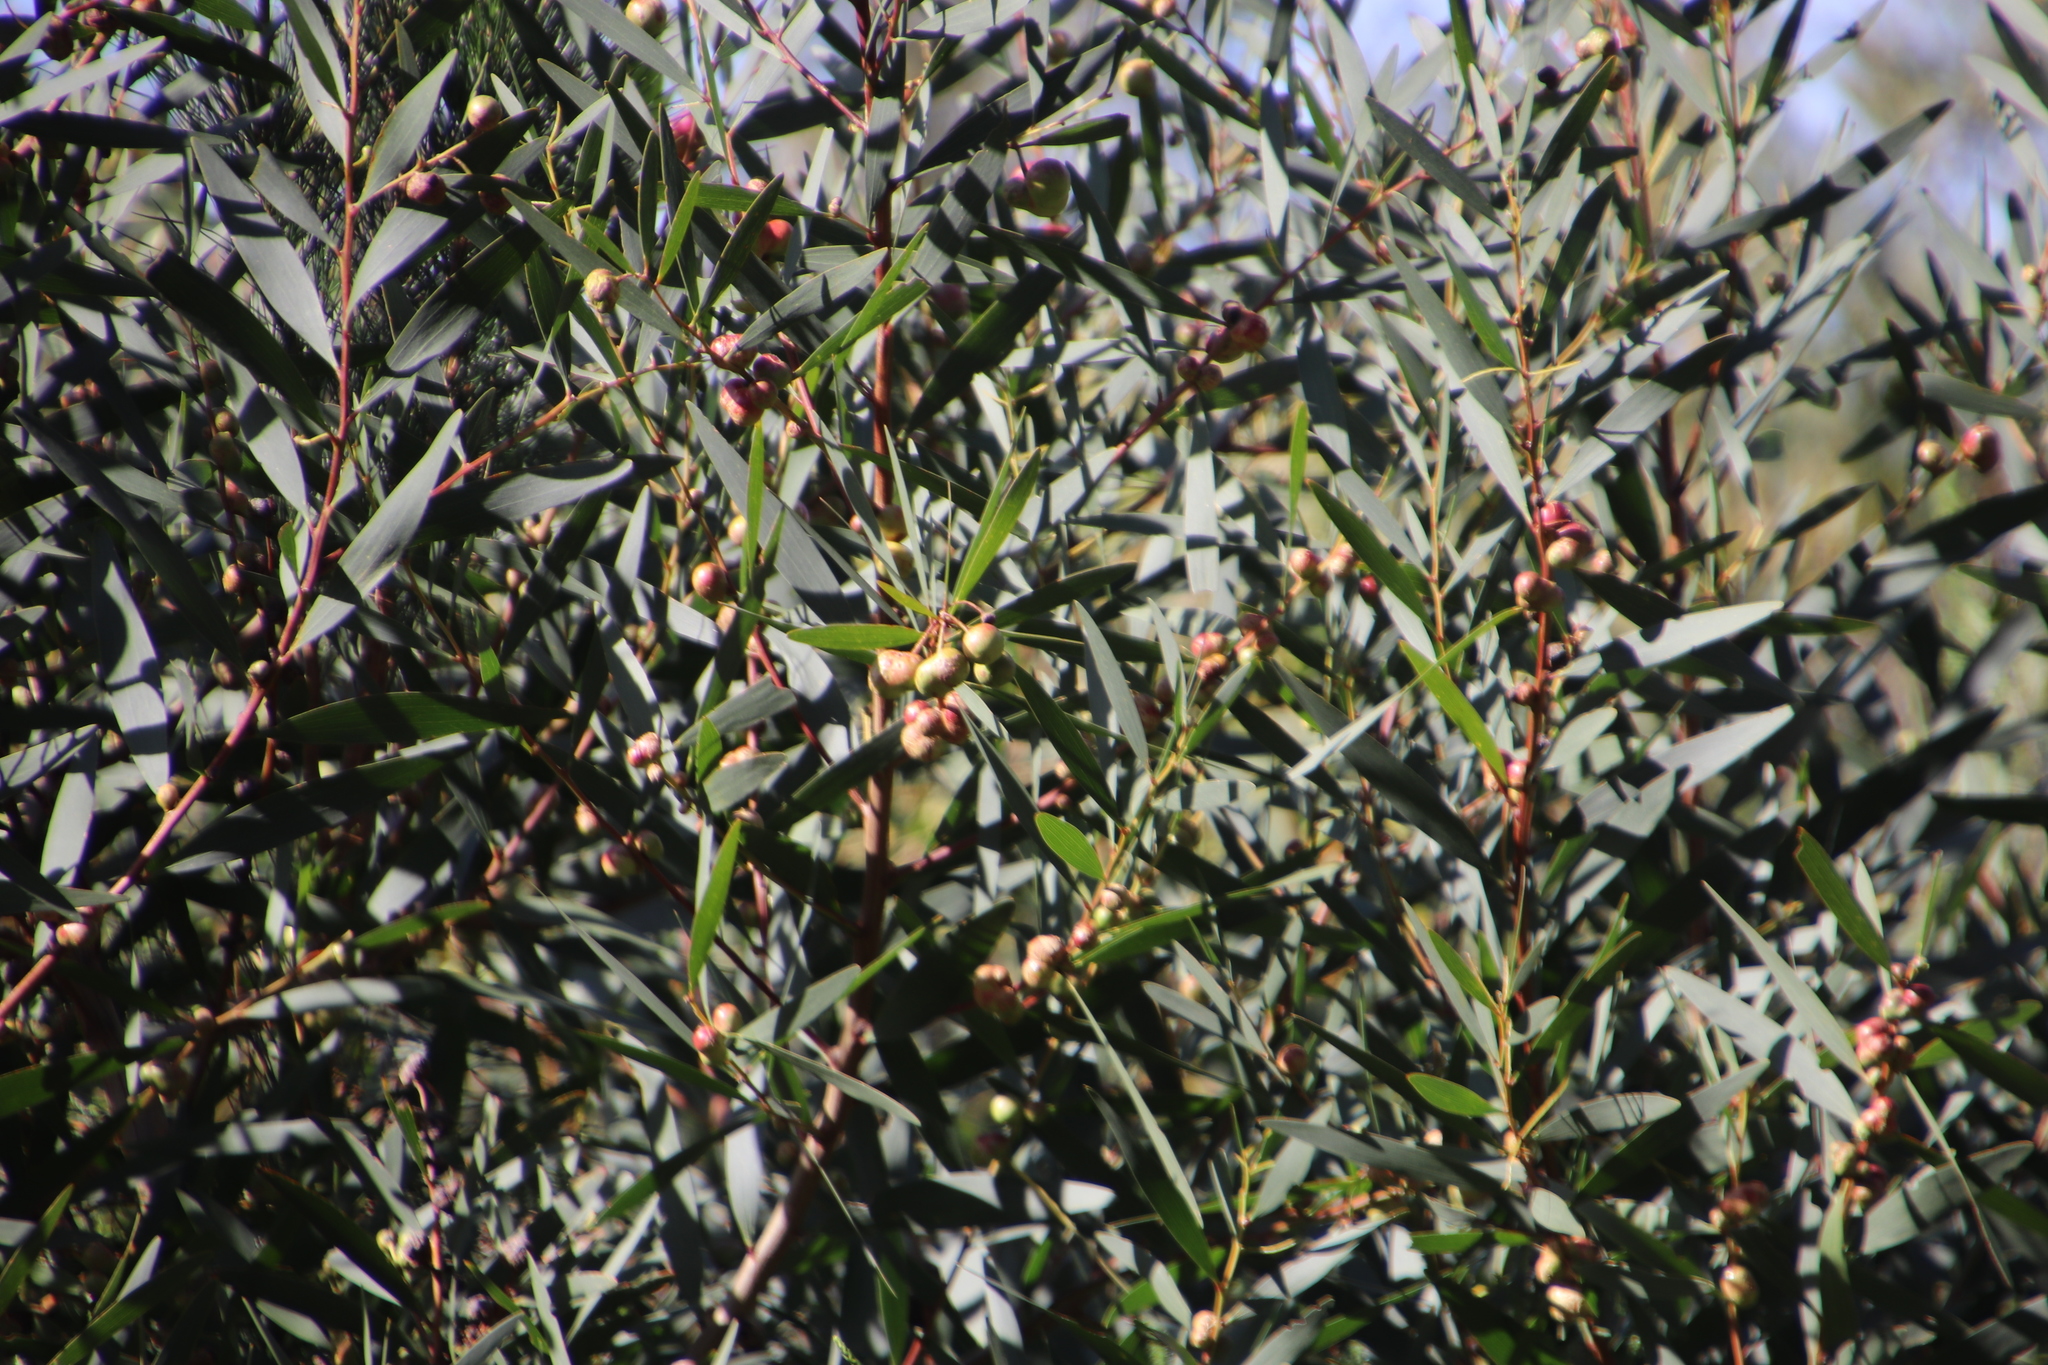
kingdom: Plantae
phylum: Tracheophyta
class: Magnoliopsida
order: Fabales
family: Fabaceae
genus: Acacia
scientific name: Acacia longifolia
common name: Sydney golden wattle
